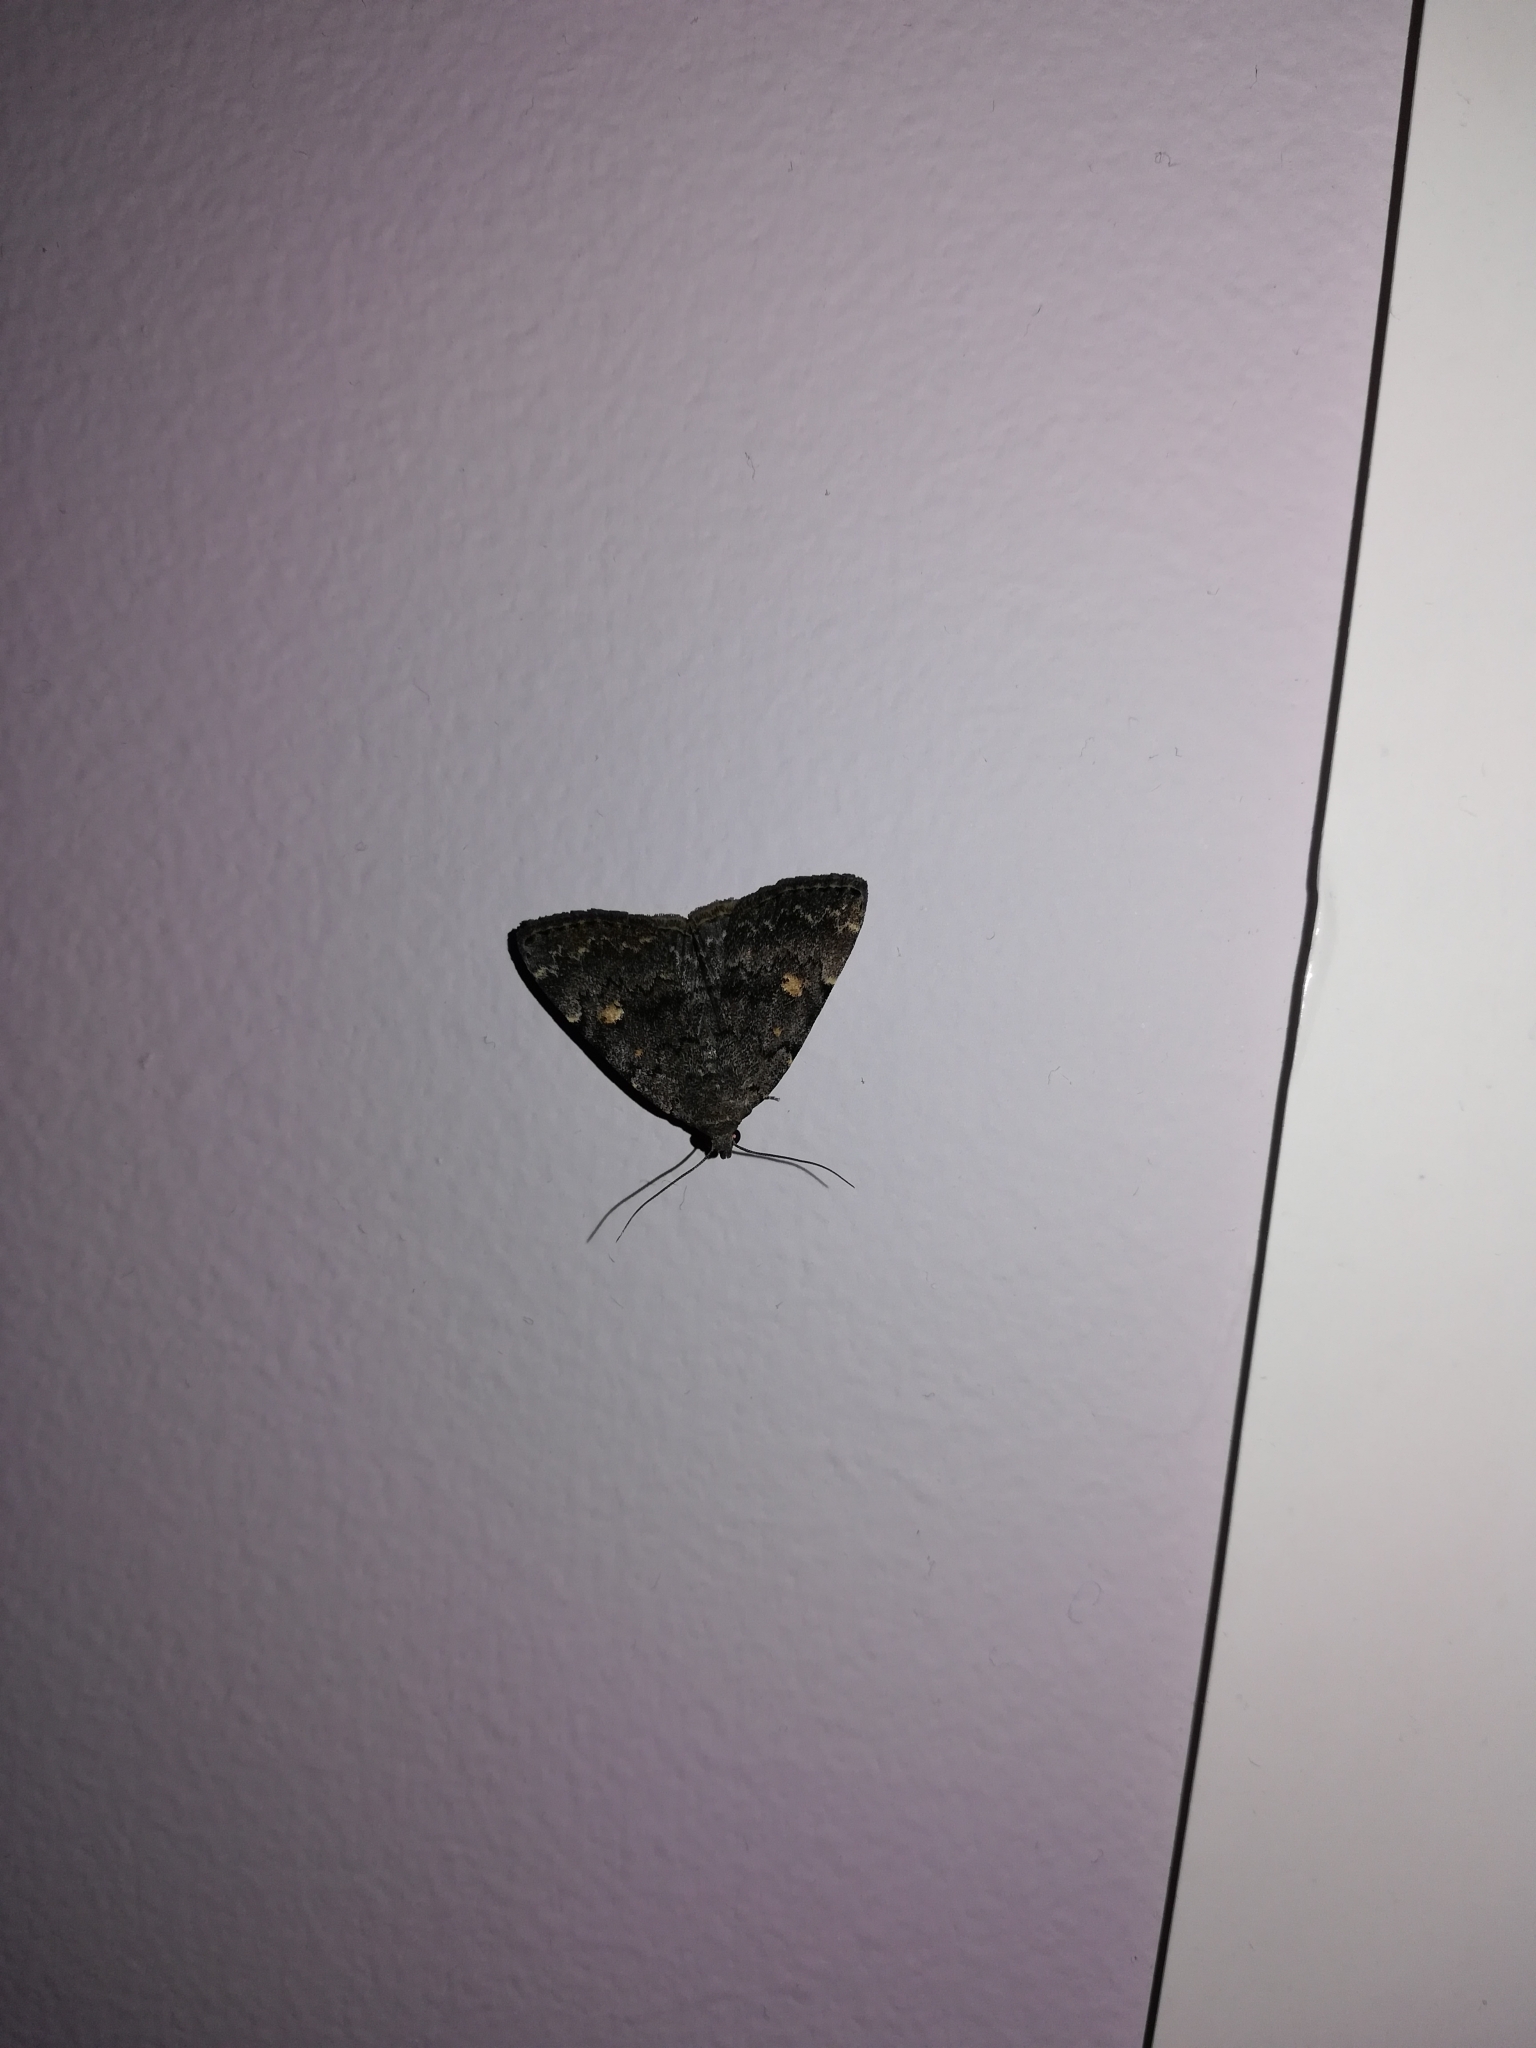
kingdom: Animalia
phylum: Arthropoda
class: Insecta
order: Lepidoptera
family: Erebidae
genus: Idia
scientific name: Idia aemula
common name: Common idia moth
